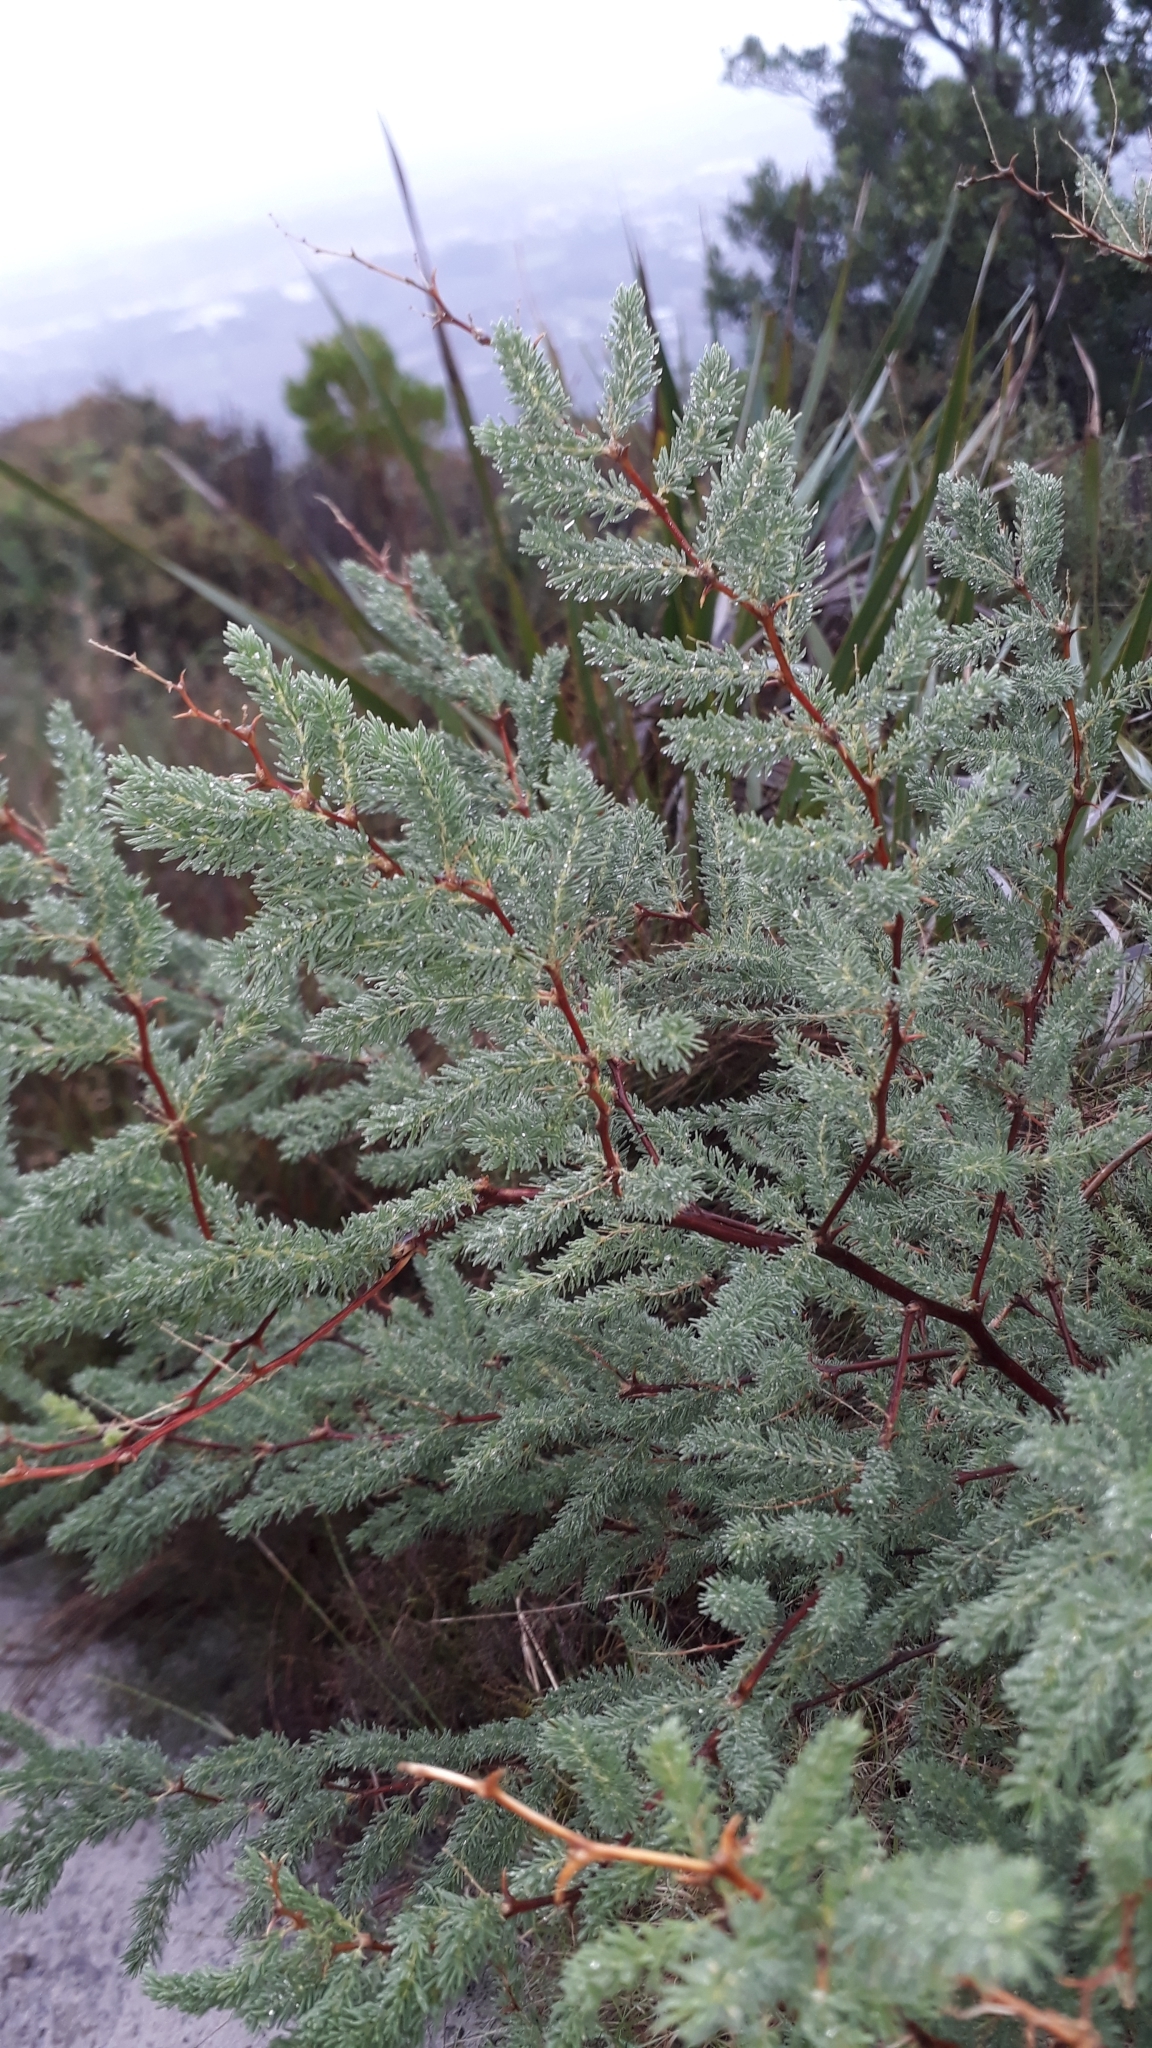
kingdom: Plantae
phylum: Tracheophyta
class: Liliopsida
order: Asparagales
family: Asparagaceae
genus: Asparagus
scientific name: Asparagus rubicundus
